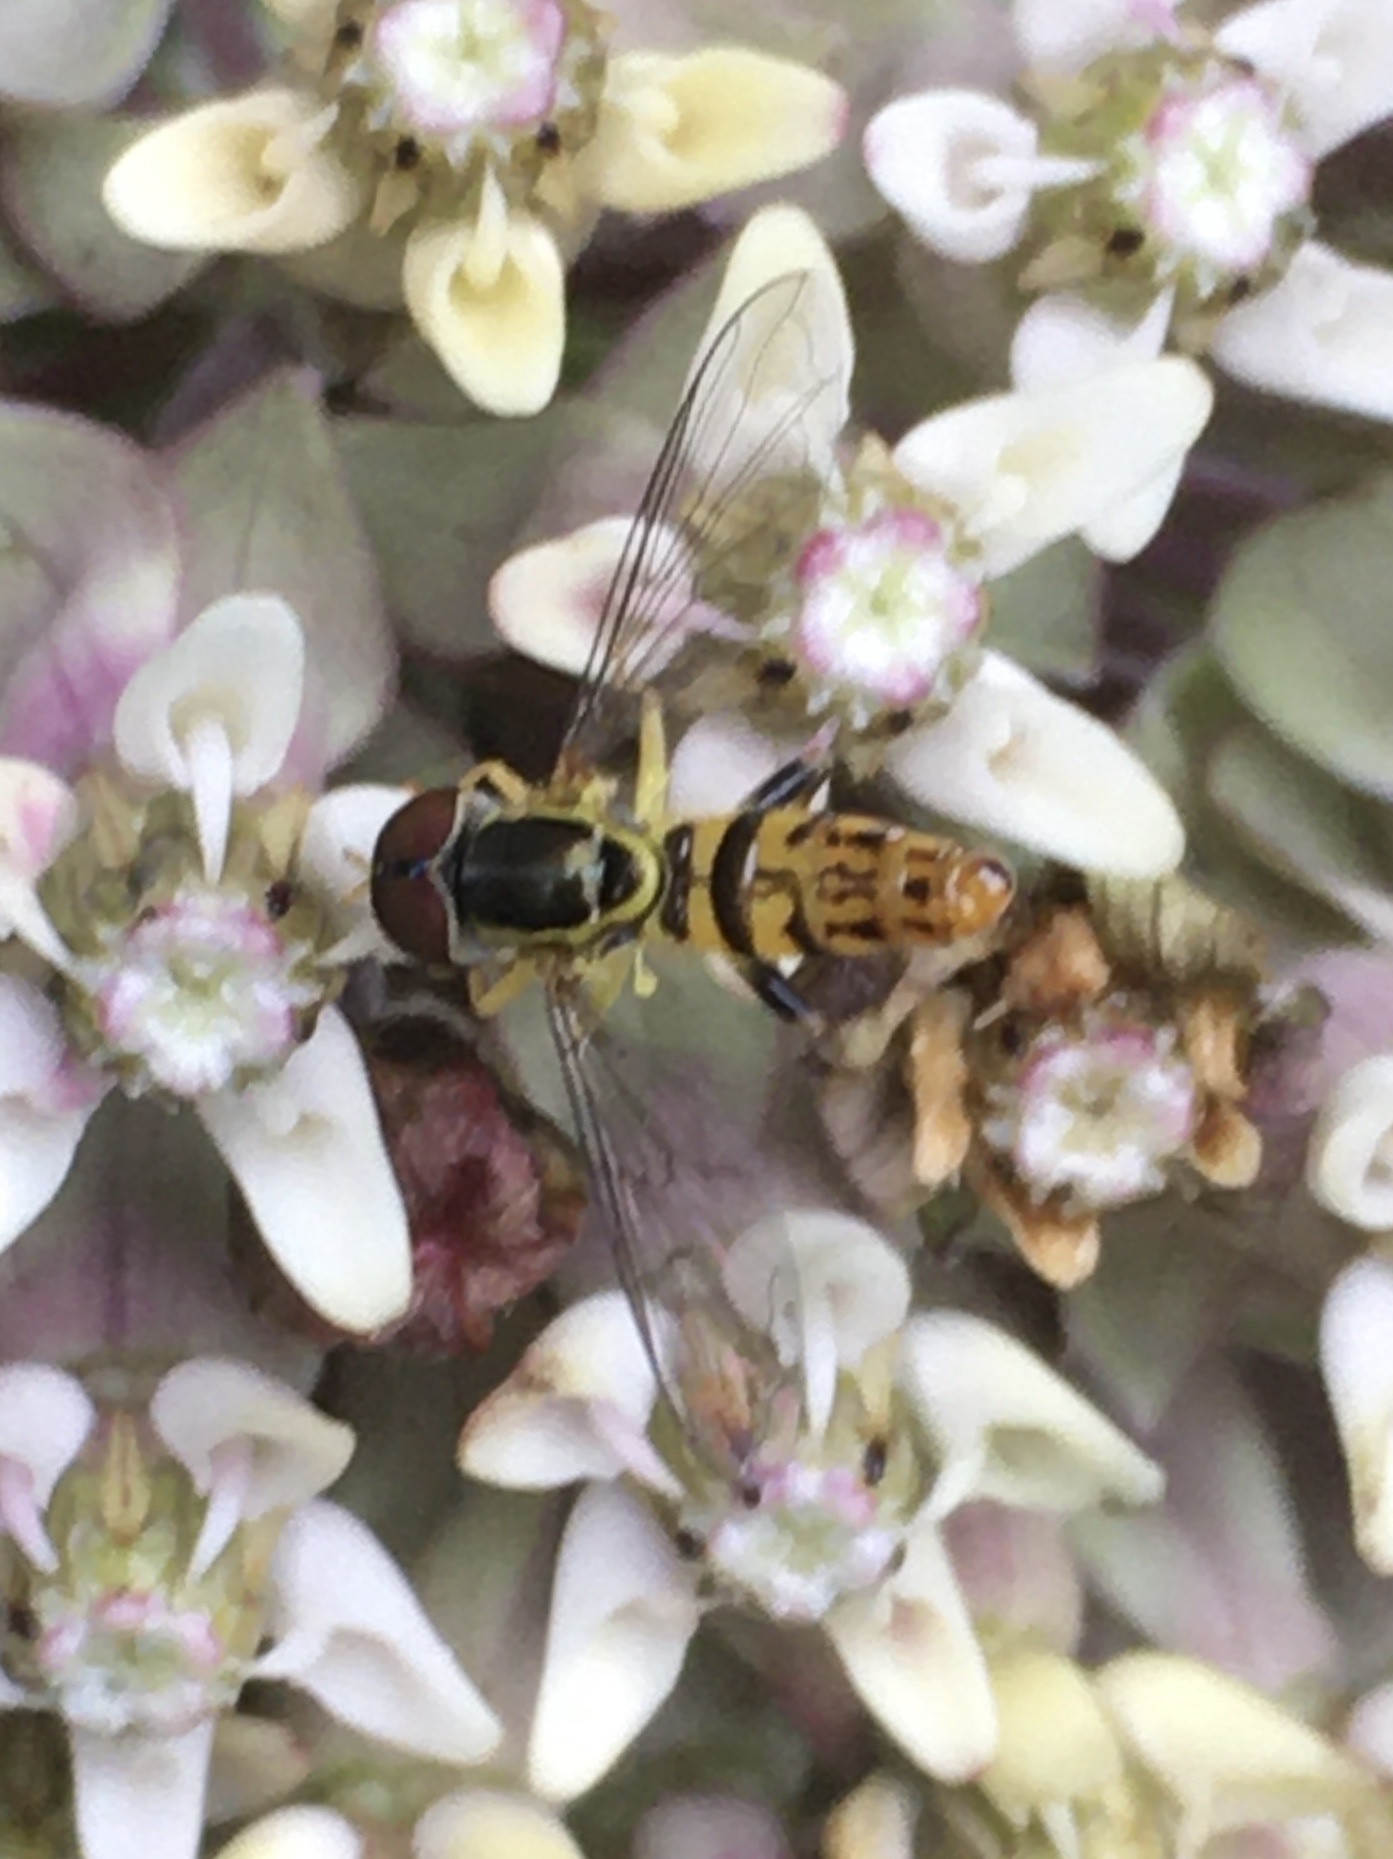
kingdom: Animalia
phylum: Arthropoda
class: Insecta
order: Diptera
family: Syrphidae
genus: Toxomerus
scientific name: Toxomerus geminatus
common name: Eastern calligrapher
